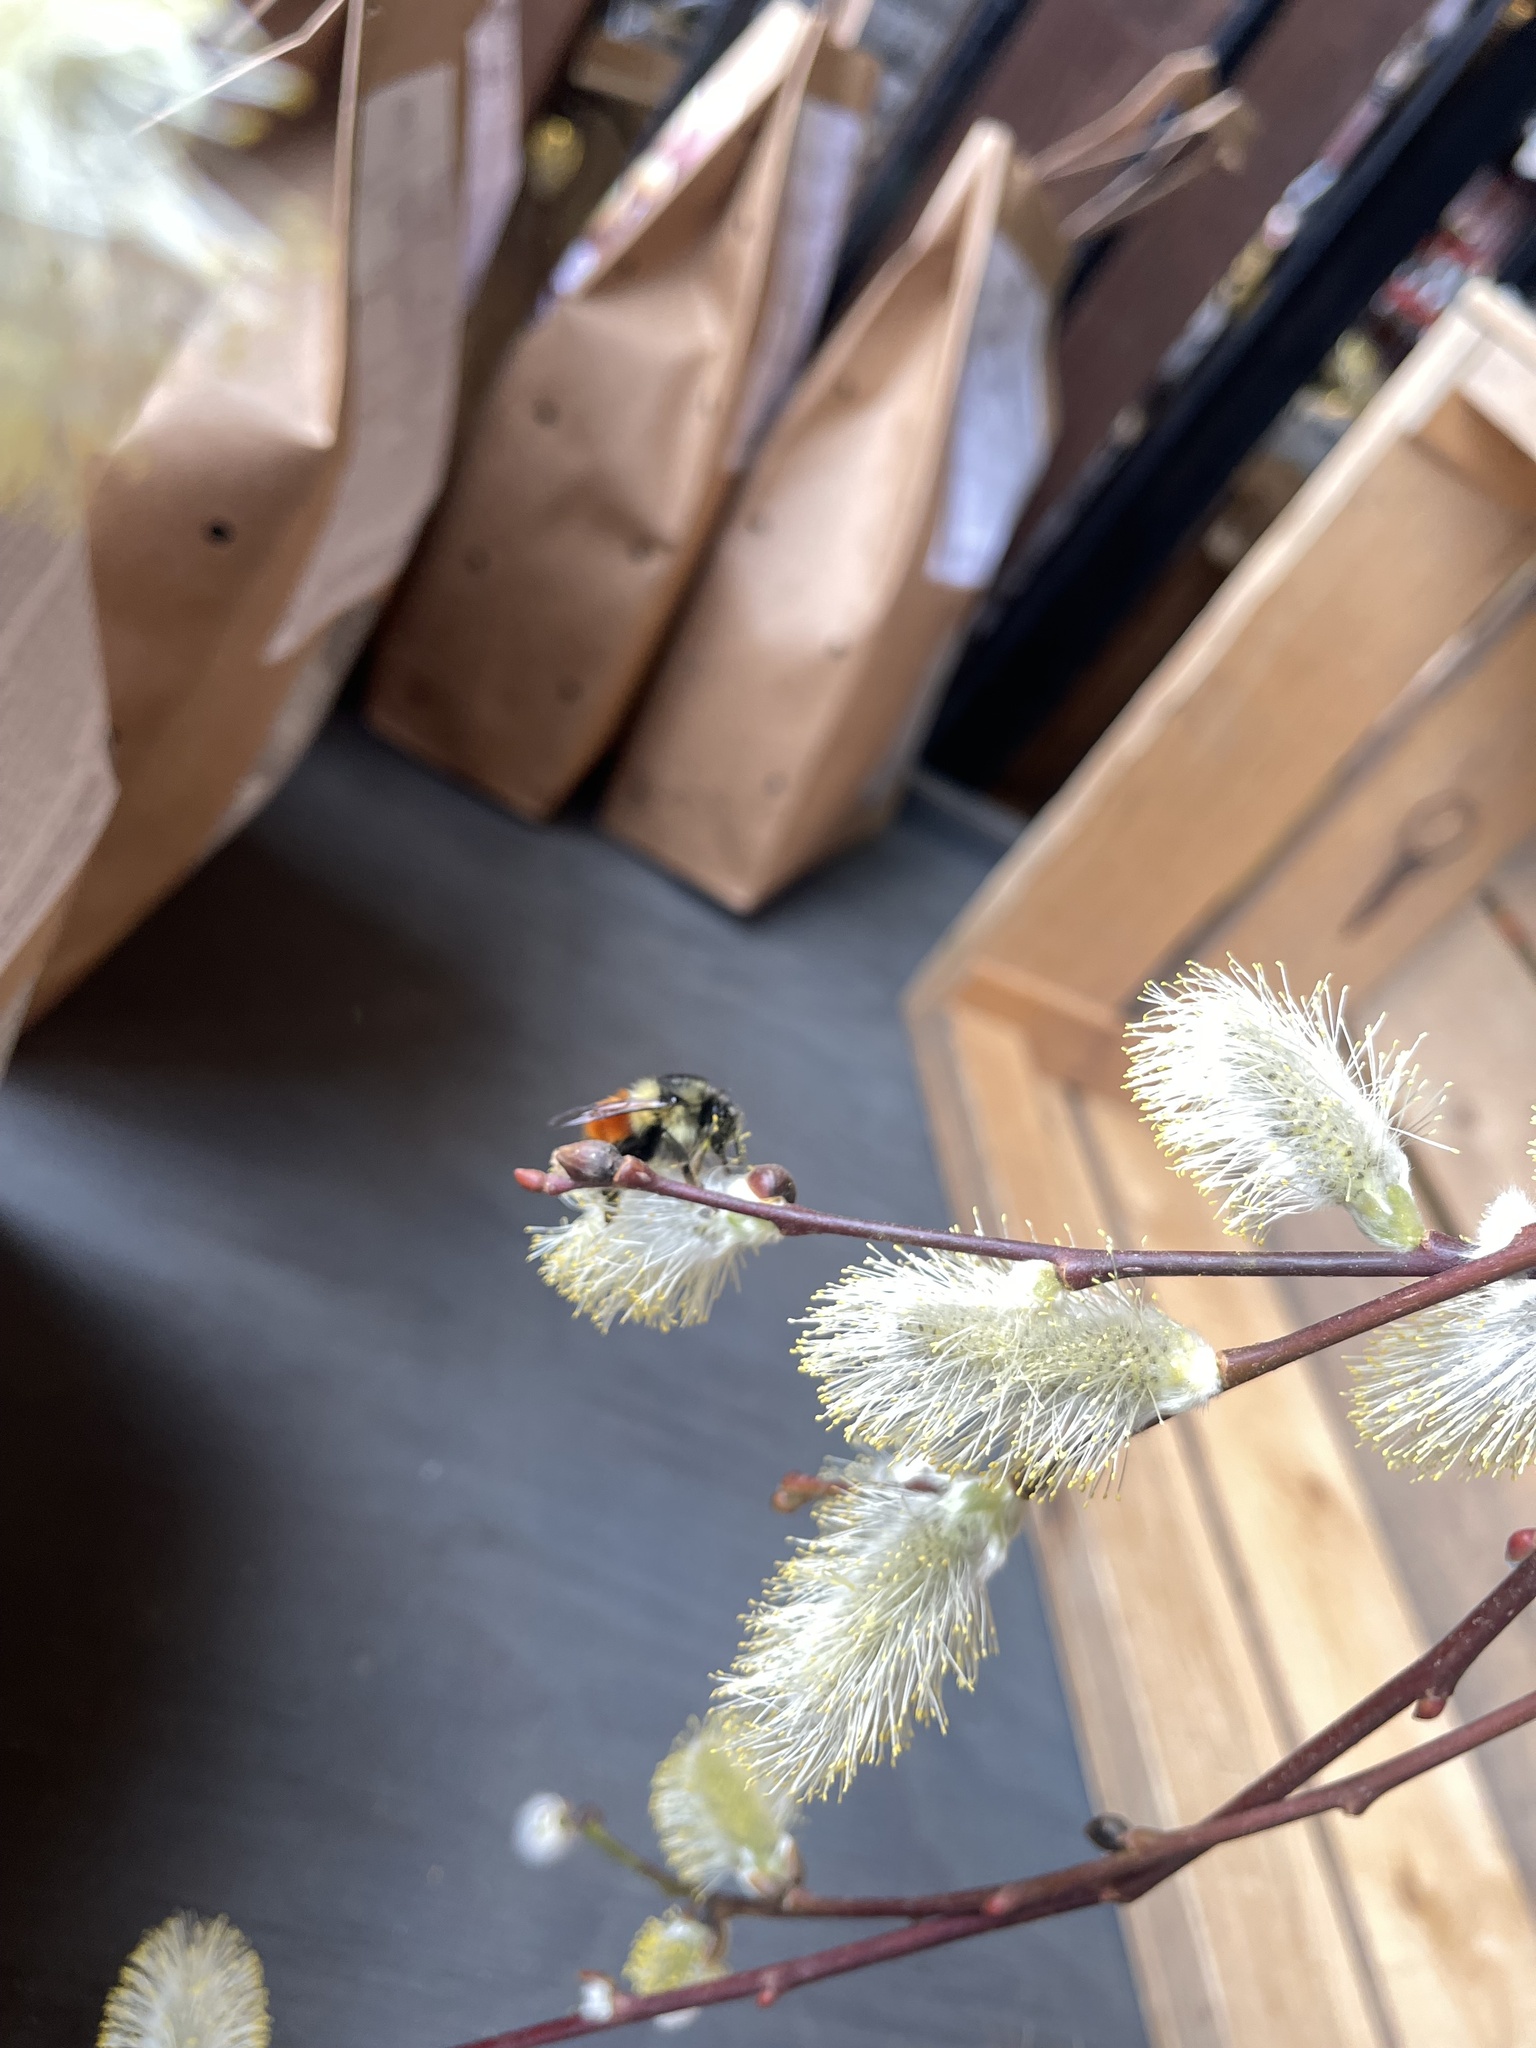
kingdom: Animalia
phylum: Arthropoda
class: Insecta
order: Hymenoptera
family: Apidae
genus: Bombus
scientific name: Bombus melanopygus
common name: Black tail bumble bee
